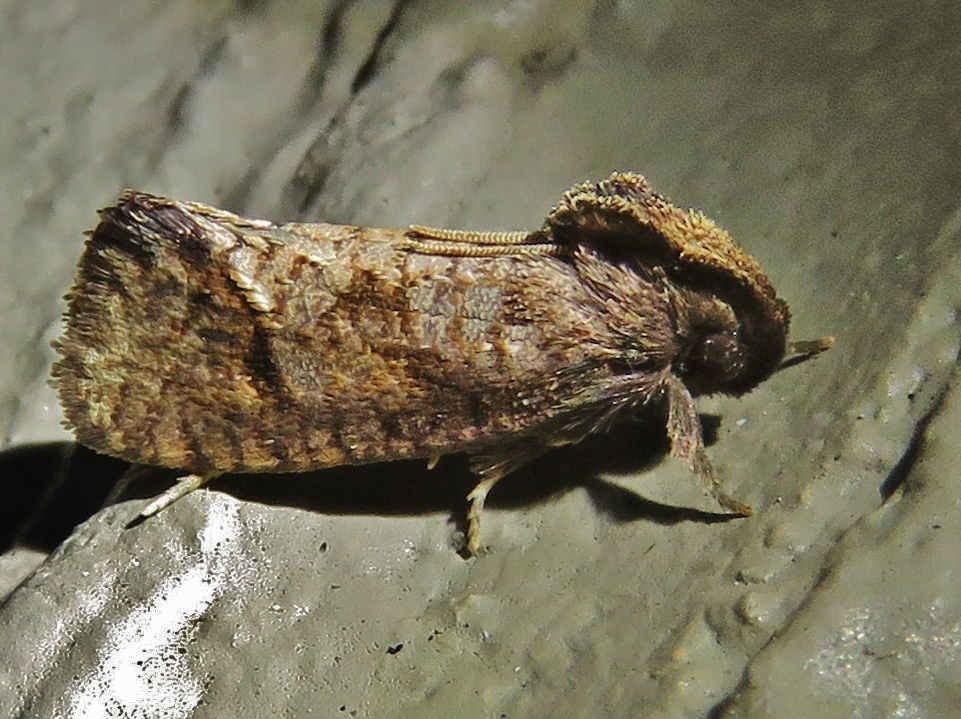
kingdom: Animalia
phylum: Arthropoda
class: Insecta
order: Lepidoptera
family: Tineidae
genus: Acrolophus
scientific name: Acrolophus texanella
